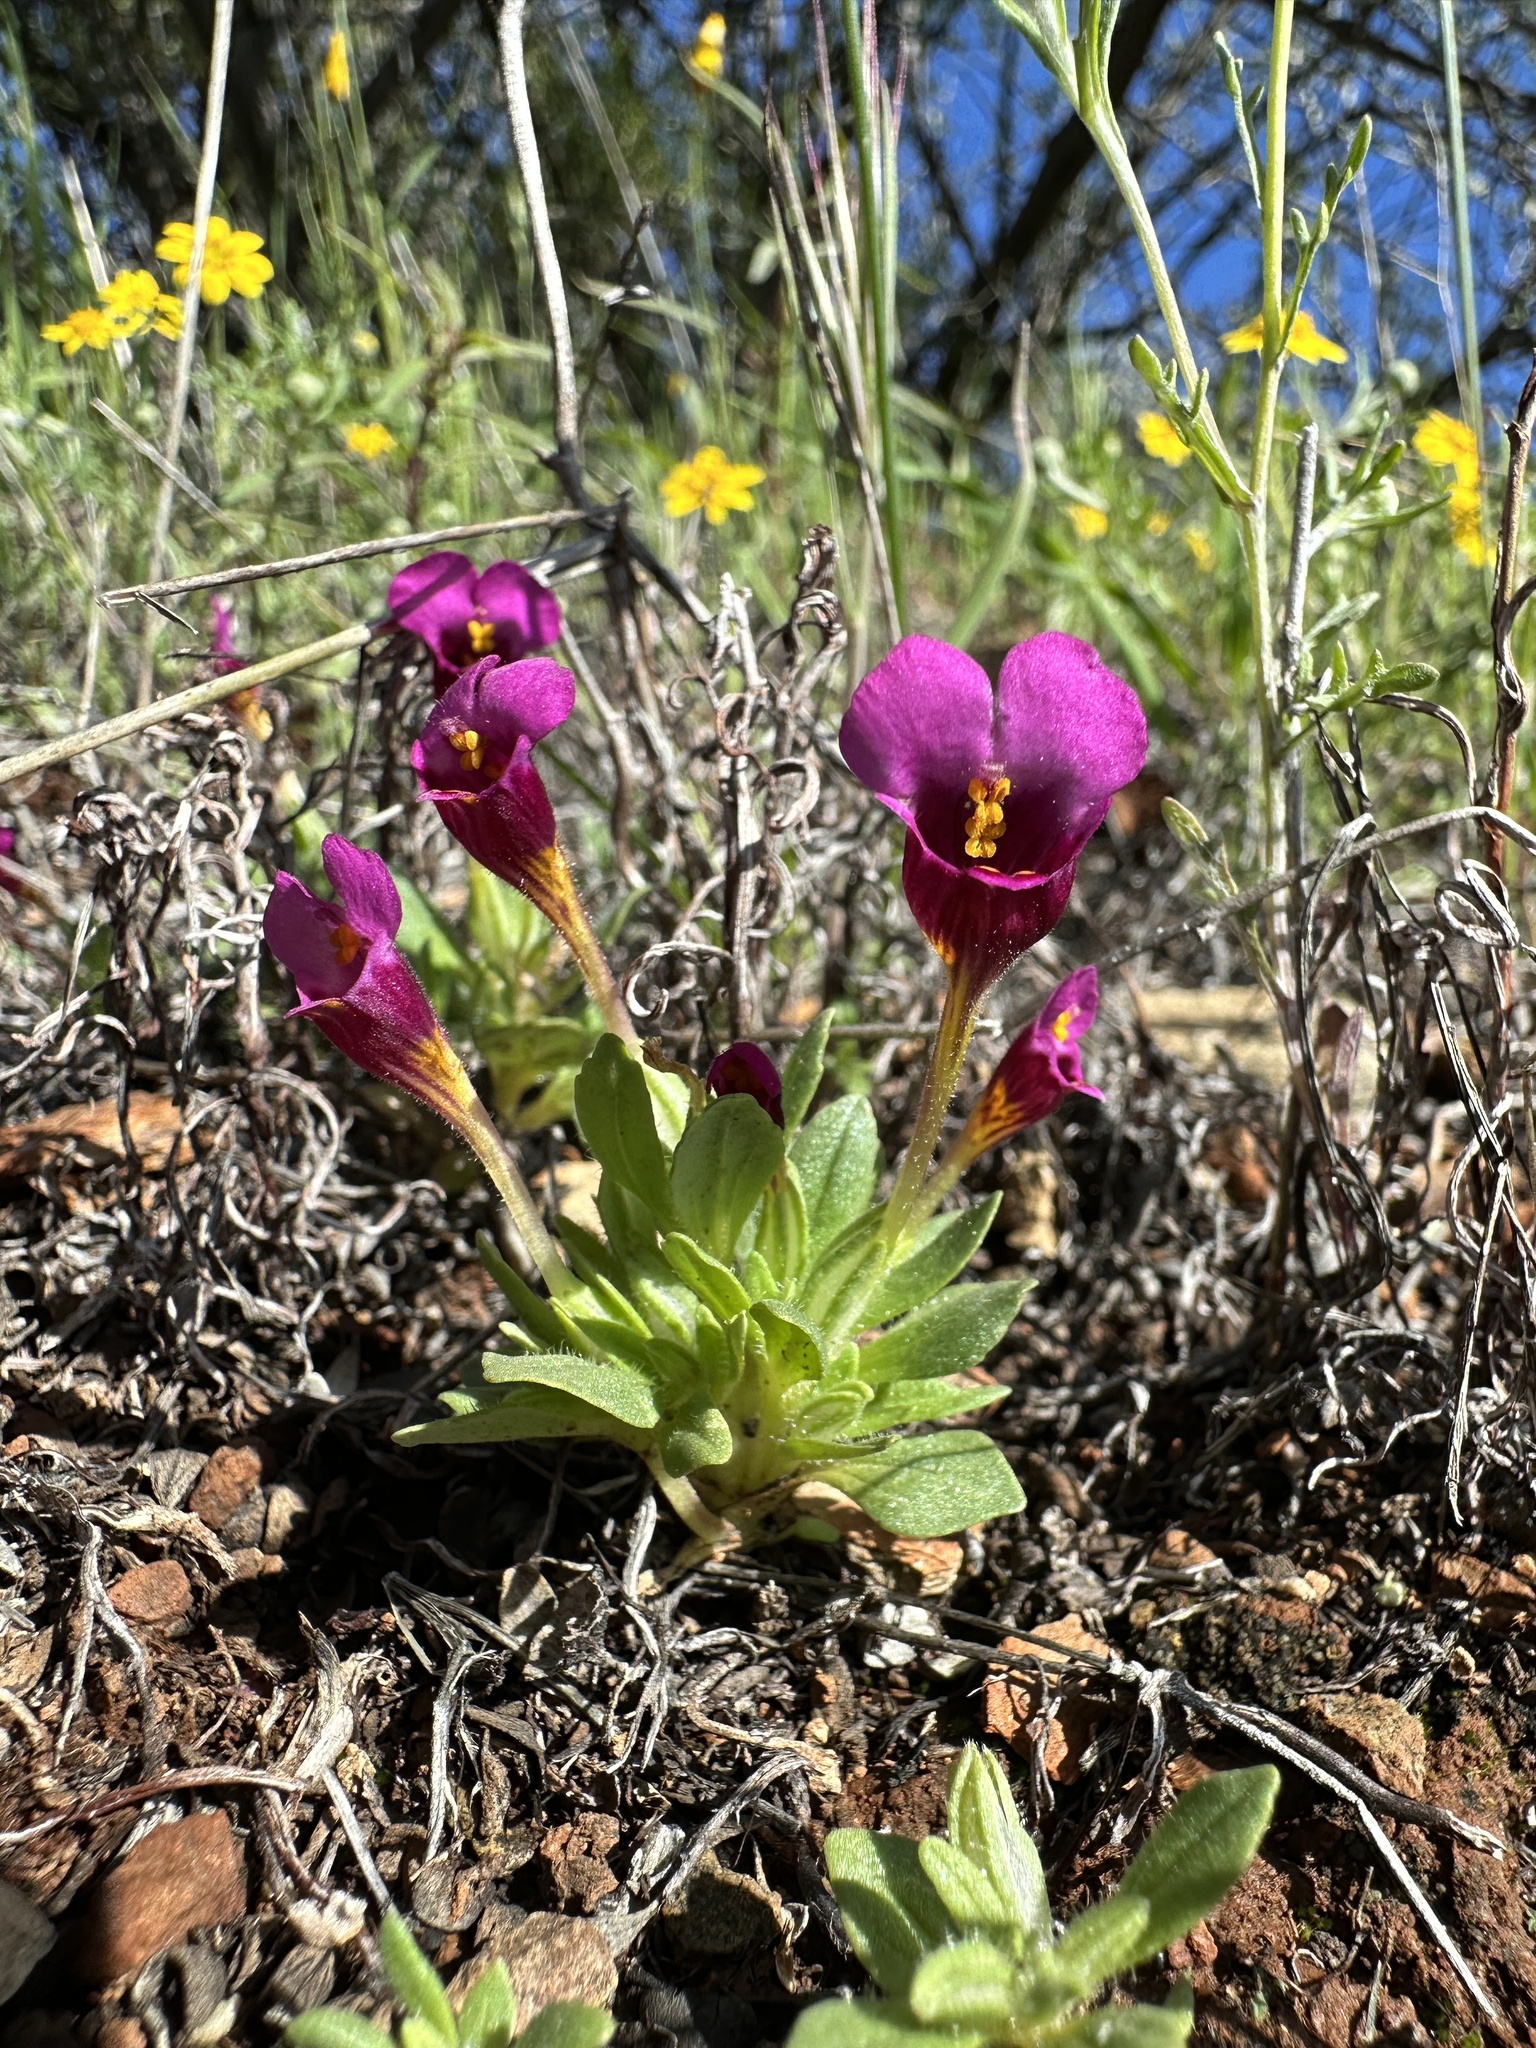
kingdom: Plantae
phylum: Tracheophyta
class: Magnoliopsida
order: Lamiales
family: Phrymaceae
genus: Diplacus
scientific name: Diplacus douglasii
